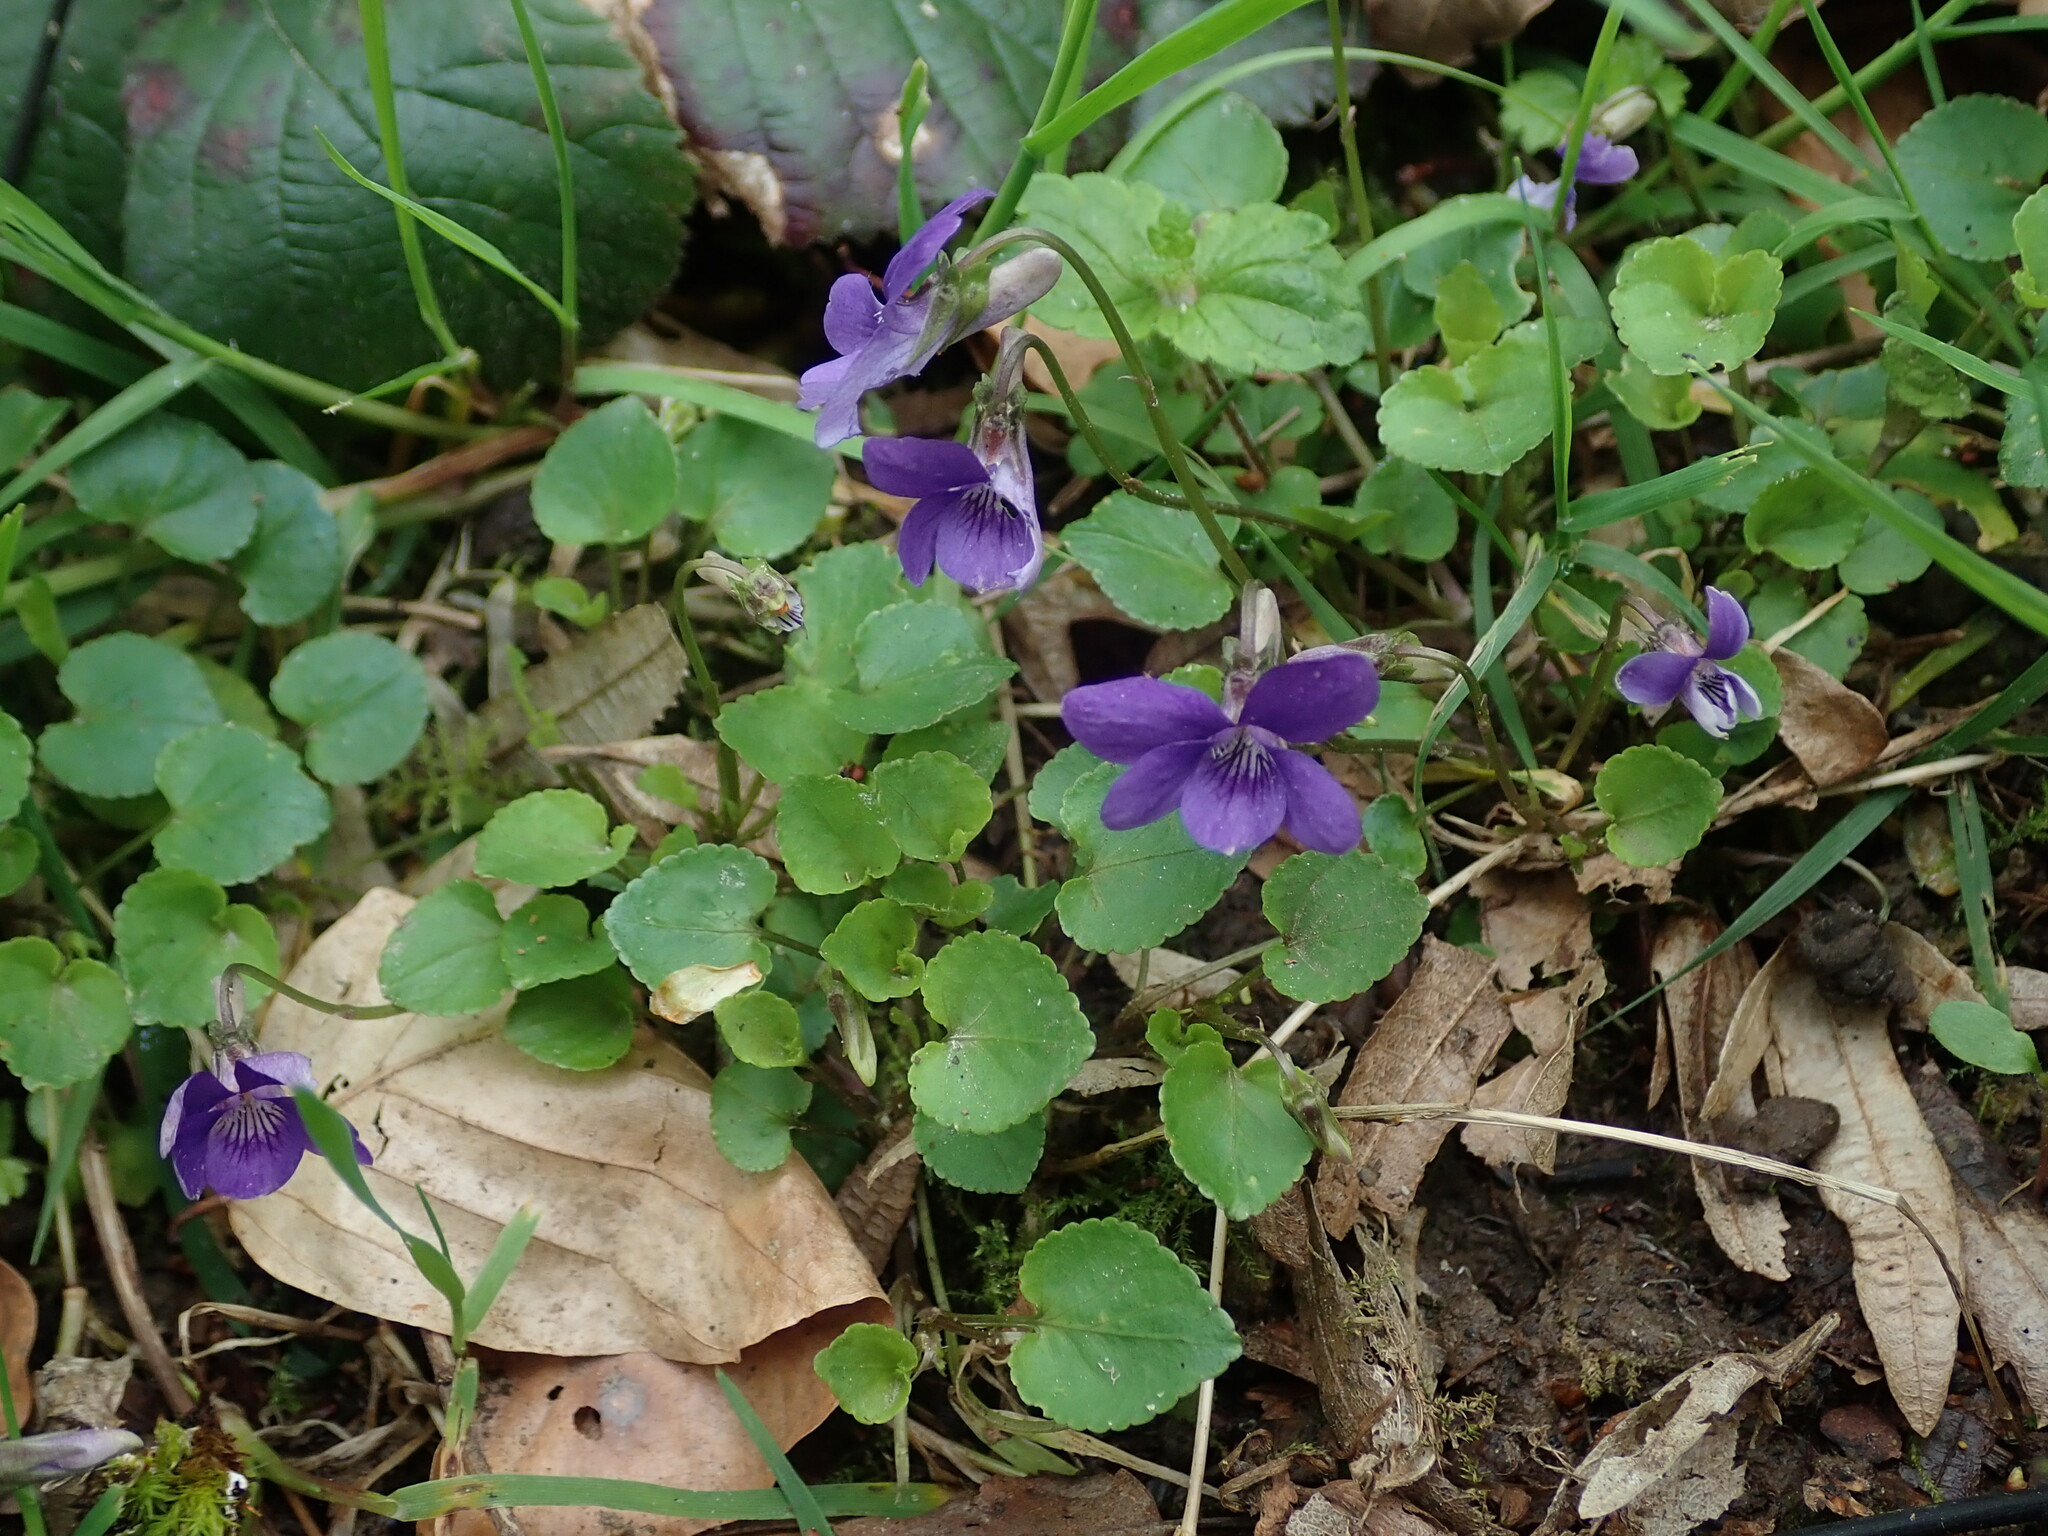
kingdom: Plantae
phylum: Tracheophyta
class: Magnoliopsida
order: Malpighiales
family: Violaceae
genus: Viola
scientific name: Viola riviniana
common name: Common dog-violet
